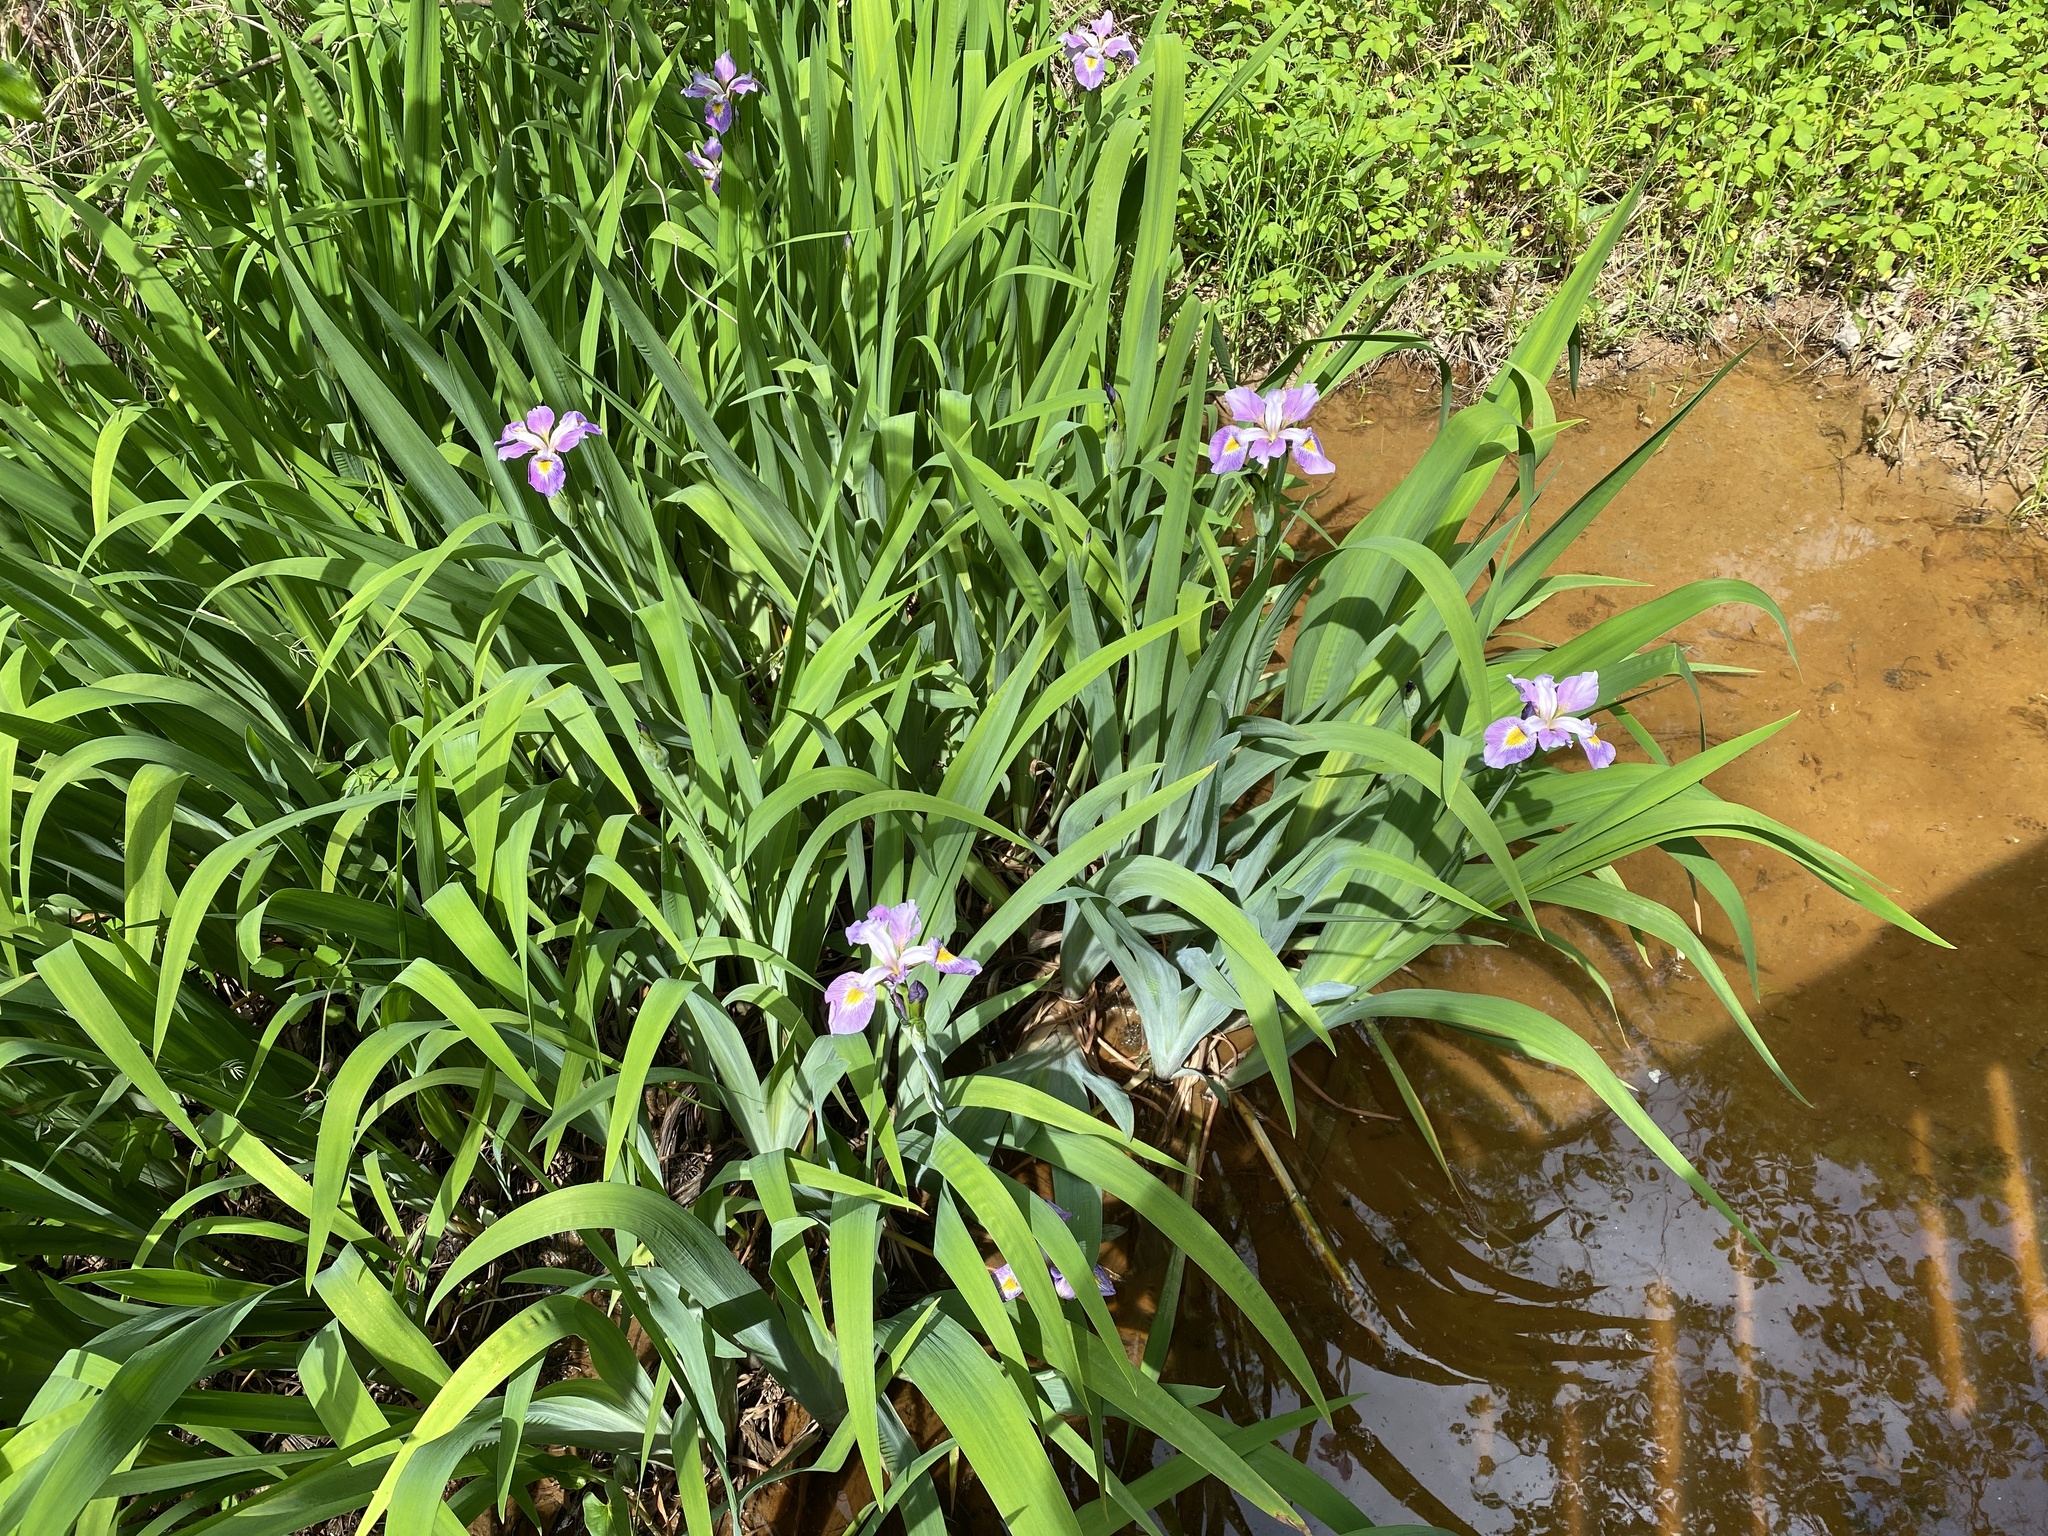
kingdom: Plantae
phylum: Tracheophyta
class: Liliopsida
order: Asparagales
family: Iridaceae
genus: Iris
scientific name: Iris virginica
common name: Southern blue flag
